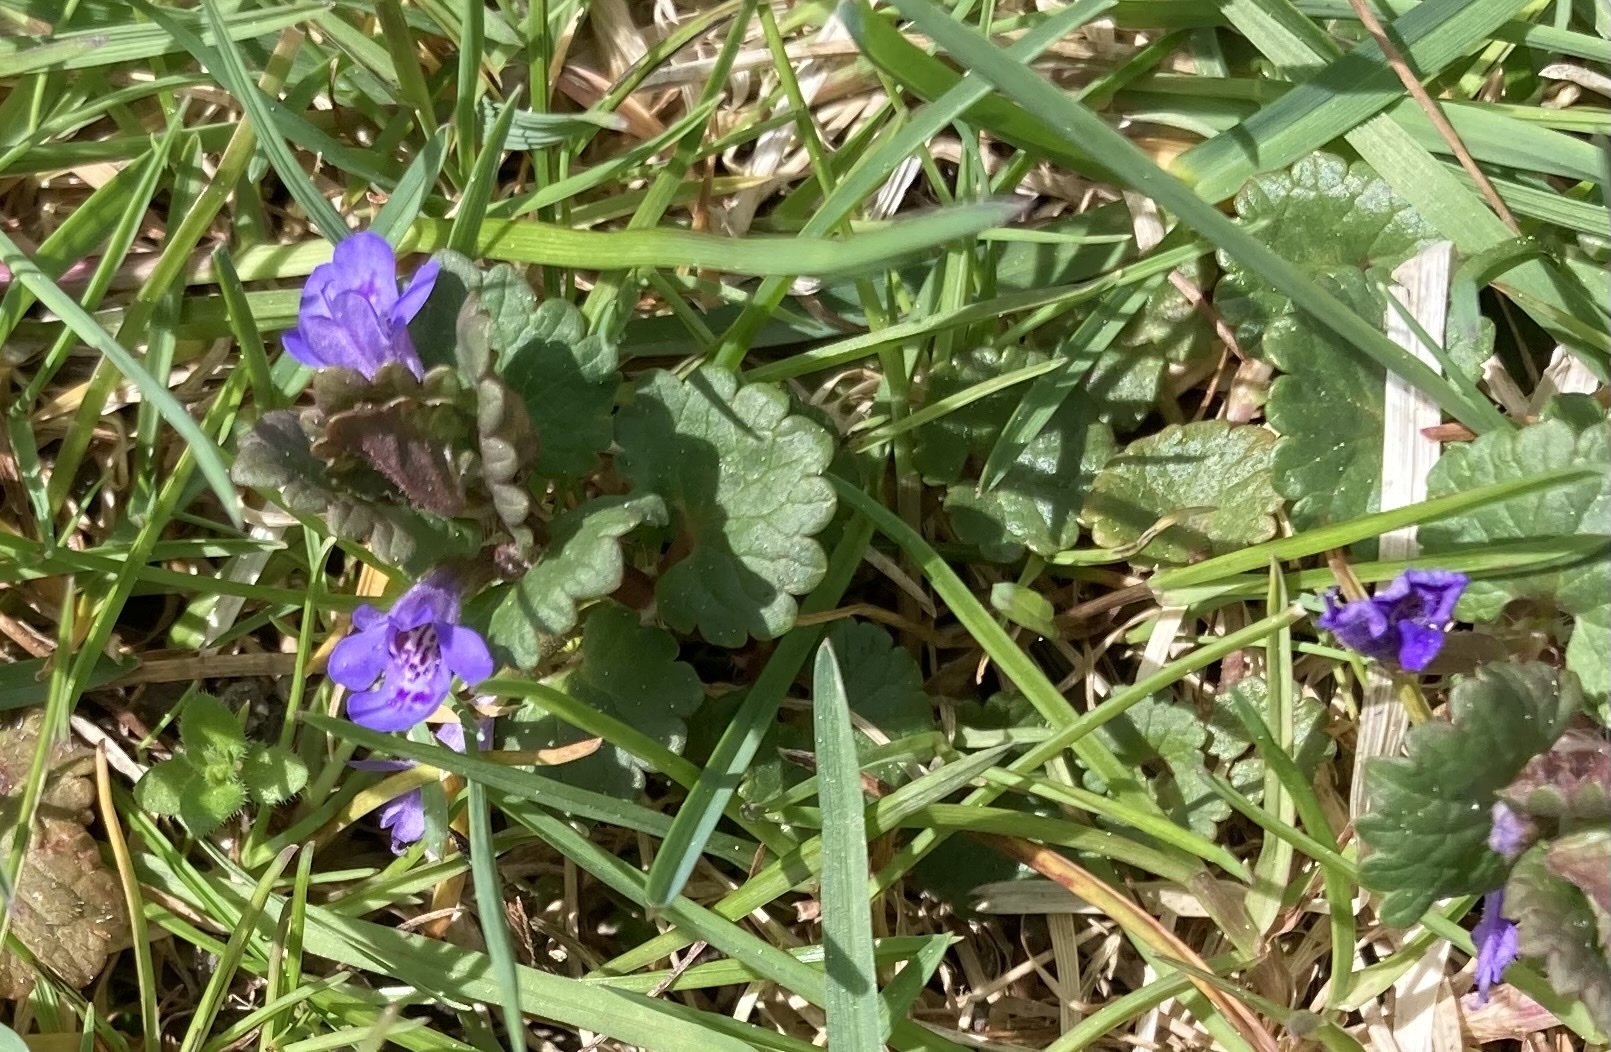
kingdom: Plantae
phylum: Tracheophyta
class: Magnoliopsida
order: Lamiales
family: Lamiaceae
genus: Glechoma
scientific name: Glechoma hederacea
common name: Ground ivy
